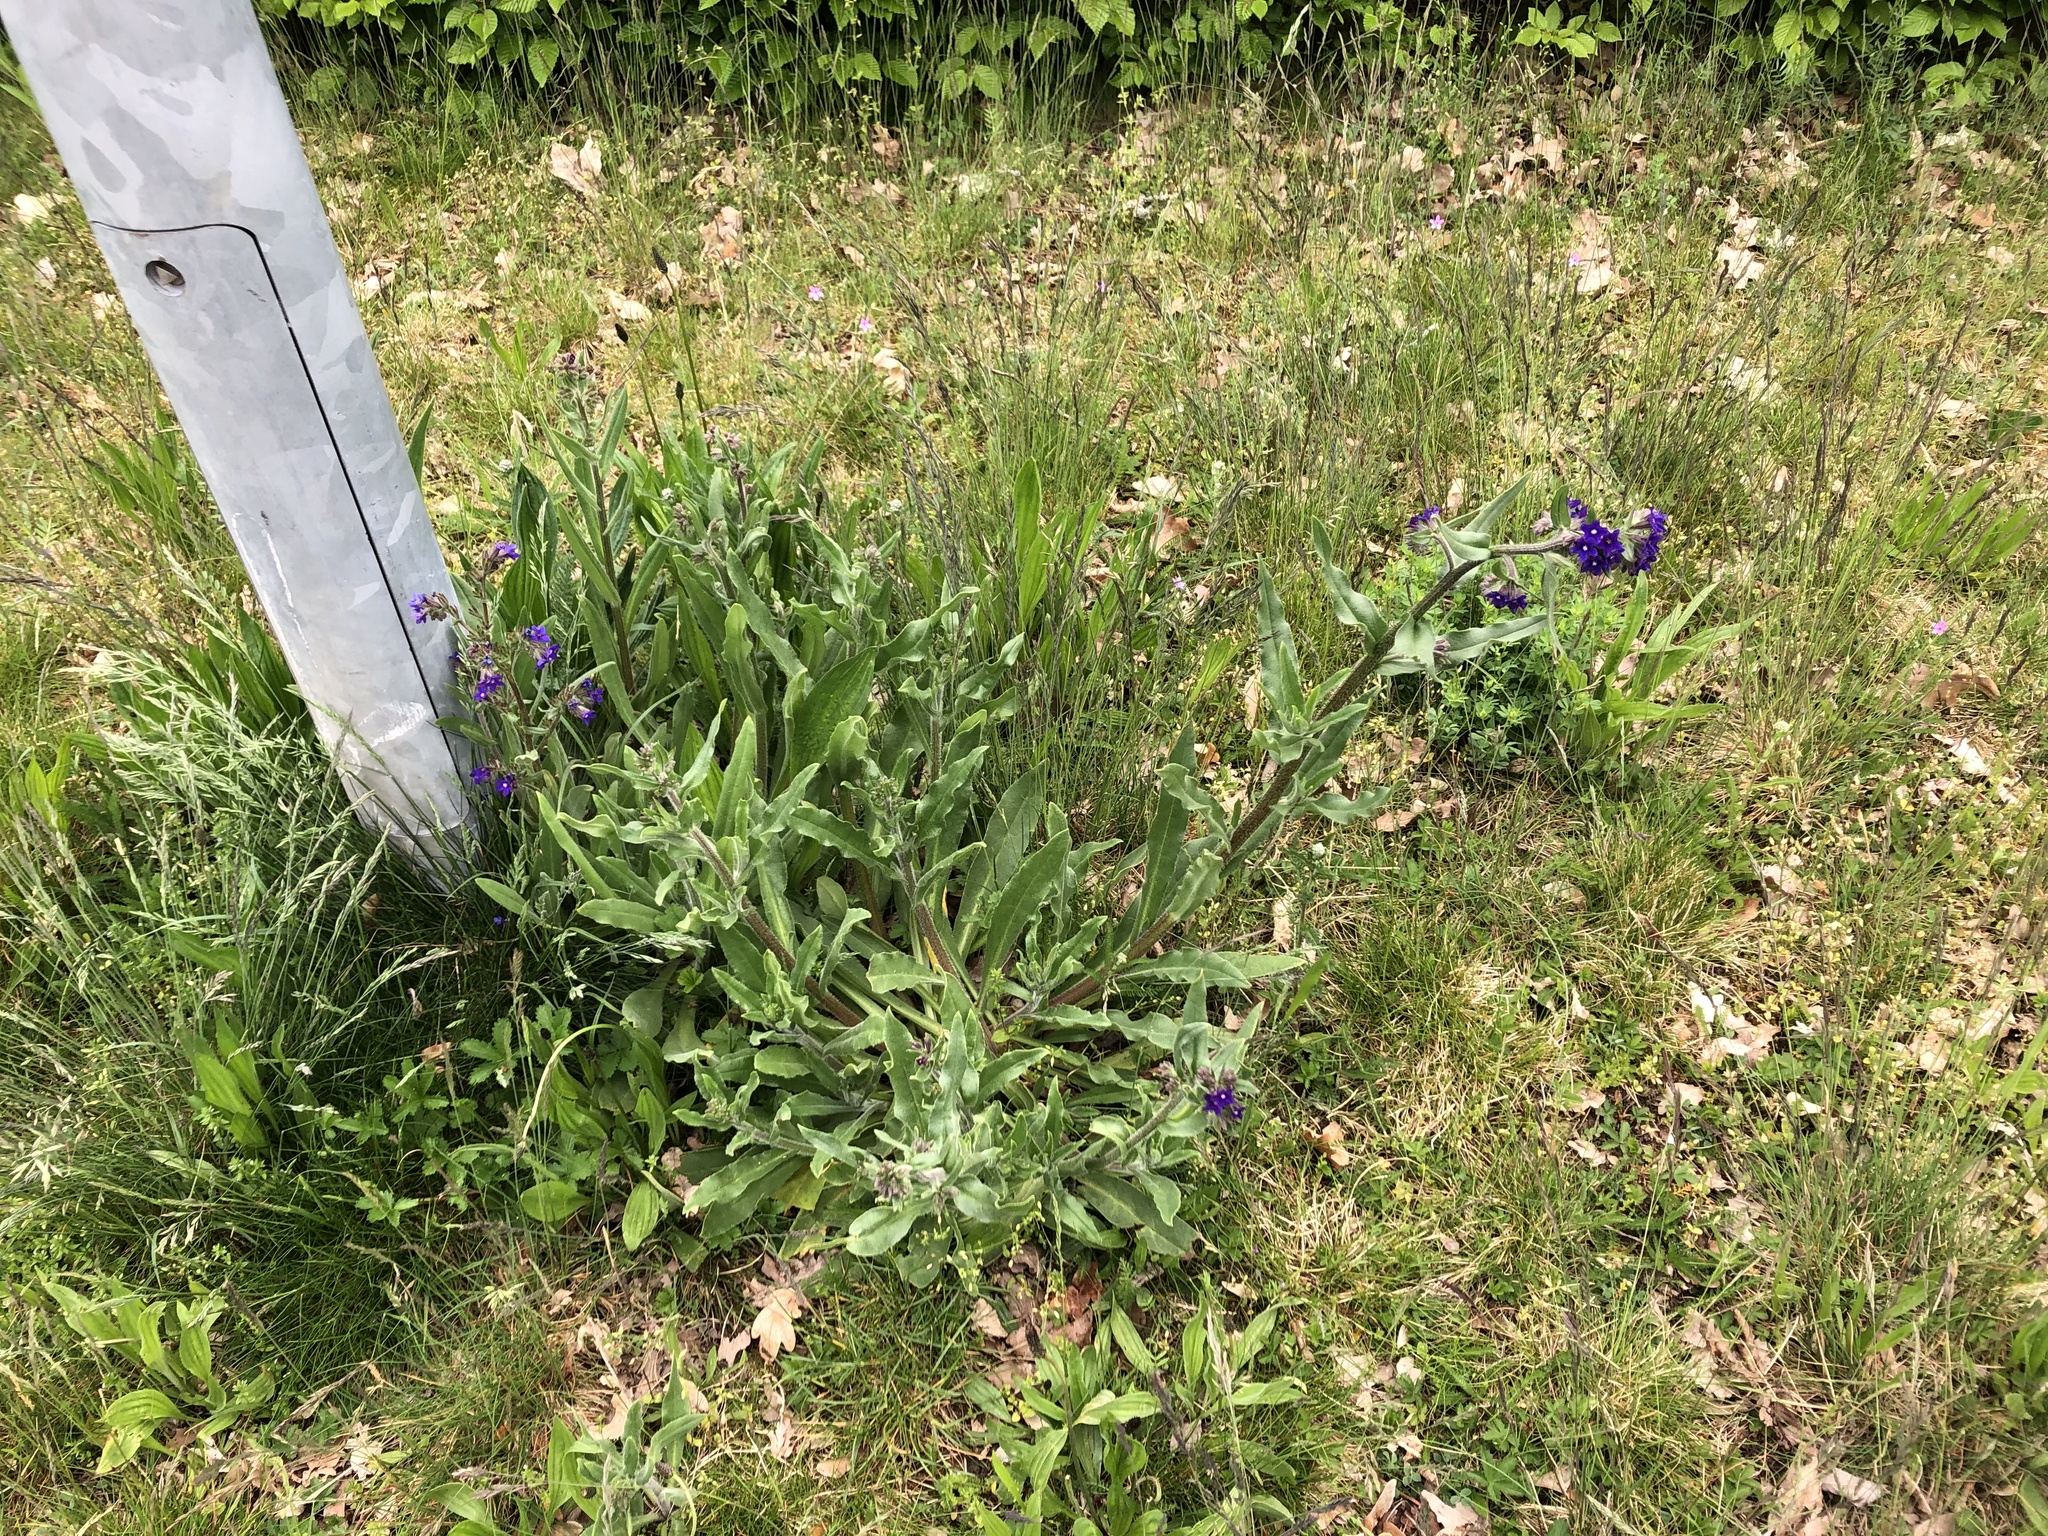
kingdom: Plantae
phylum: Tracheophyta
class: Magnoliopsida
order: Boraginales
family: Boraginaceae
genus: Anchusa
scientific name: Anchusa officinalis
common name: Alkanet
